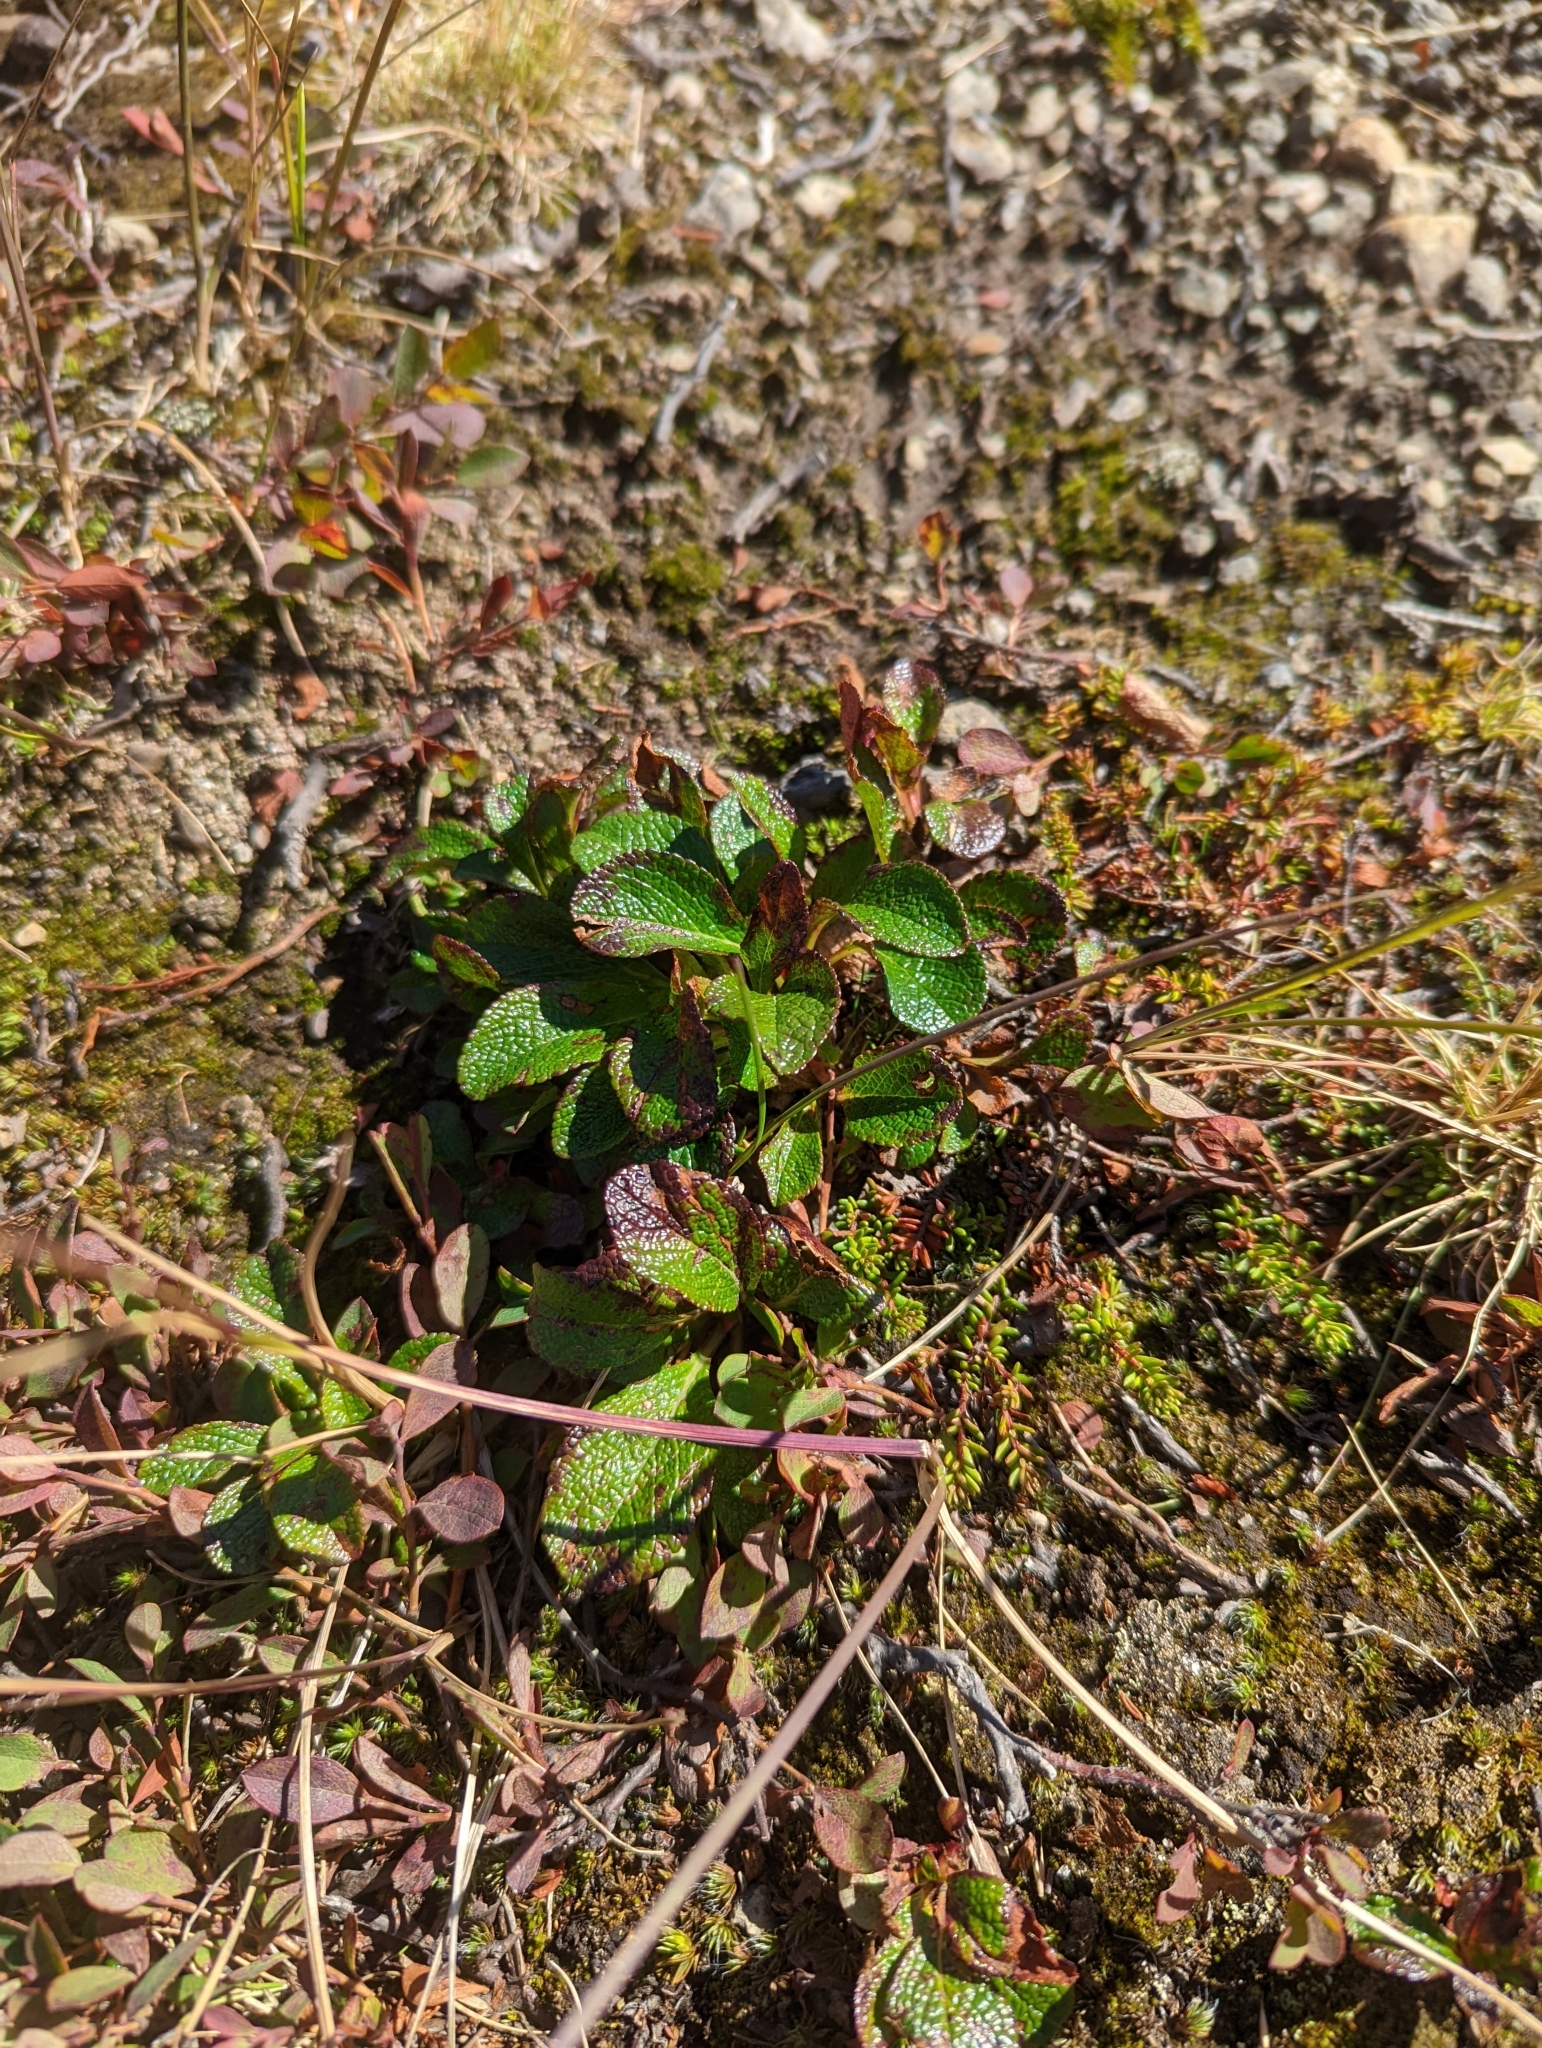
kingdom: Plantae
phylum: Tracheophyta
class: Magnoliopsida
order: Ericales
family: Ericaceae
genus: Arctostaphylos
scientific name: Arctostaphylos alpinus
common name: Alpine bearberry
